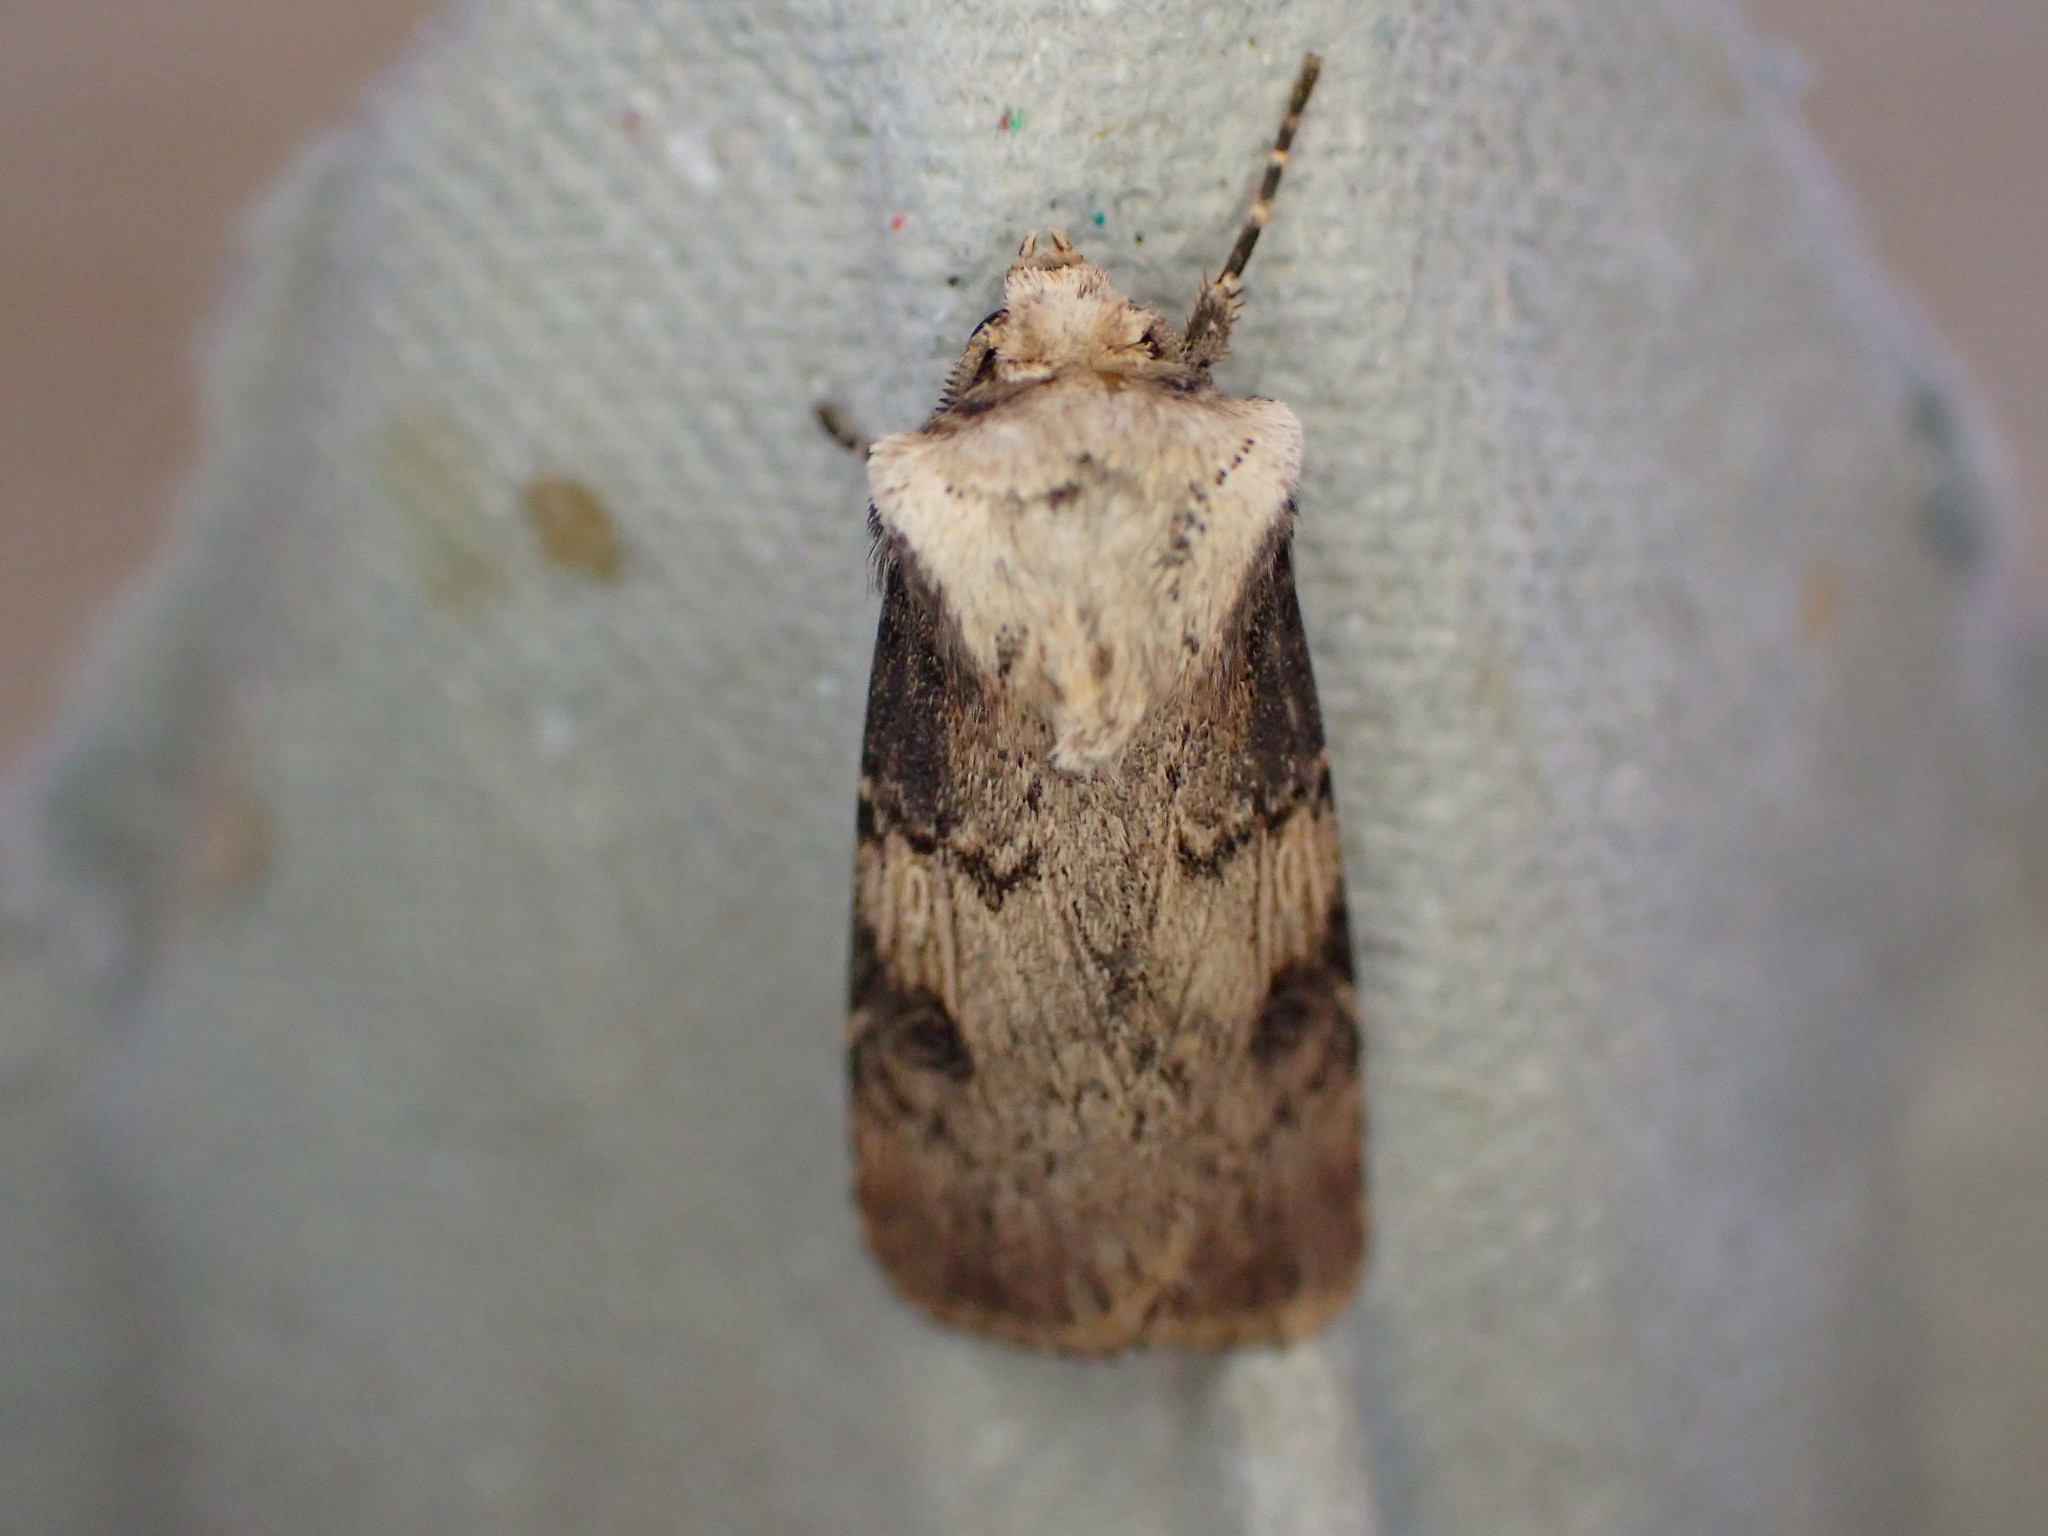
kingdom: Animalia
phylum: Arthropoda
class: Insecta
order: Lepidoptera
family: Noctuidae
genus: Agrotis
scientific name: Agrotis puta
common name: Shuttle-shaped dart
